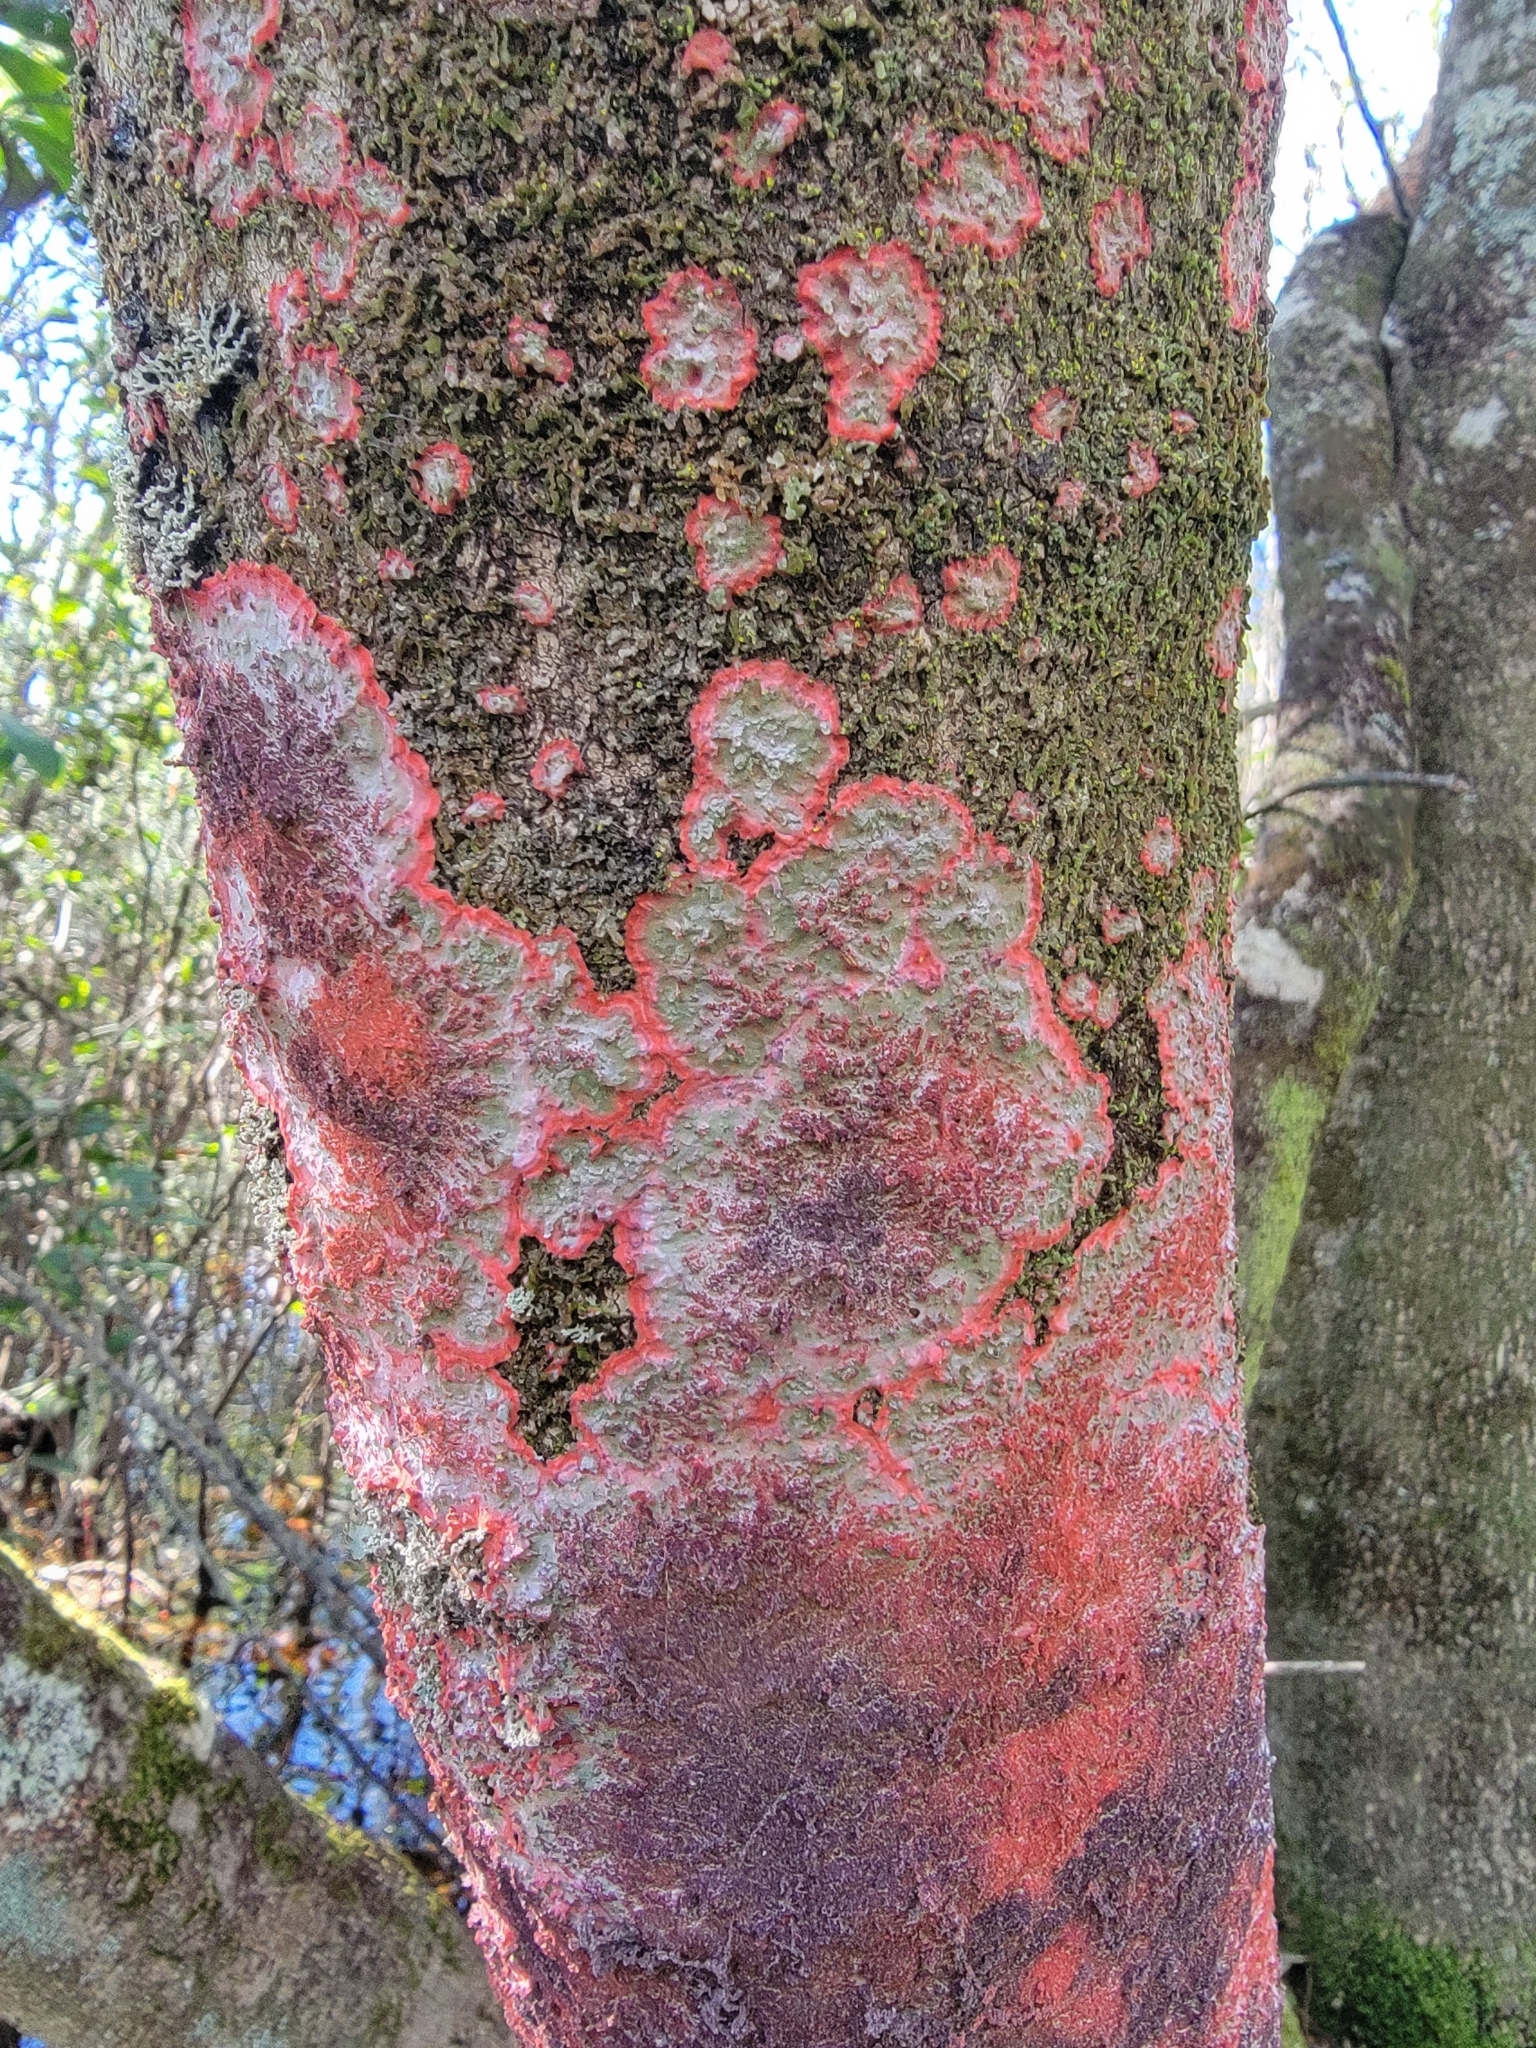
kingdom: Fungi
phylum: Ascomycota
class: Arthoniomycetes
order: Arthoniales
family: Arthoniaceae
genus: Herpothallon
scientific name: Herpothallon rubrocinctum
